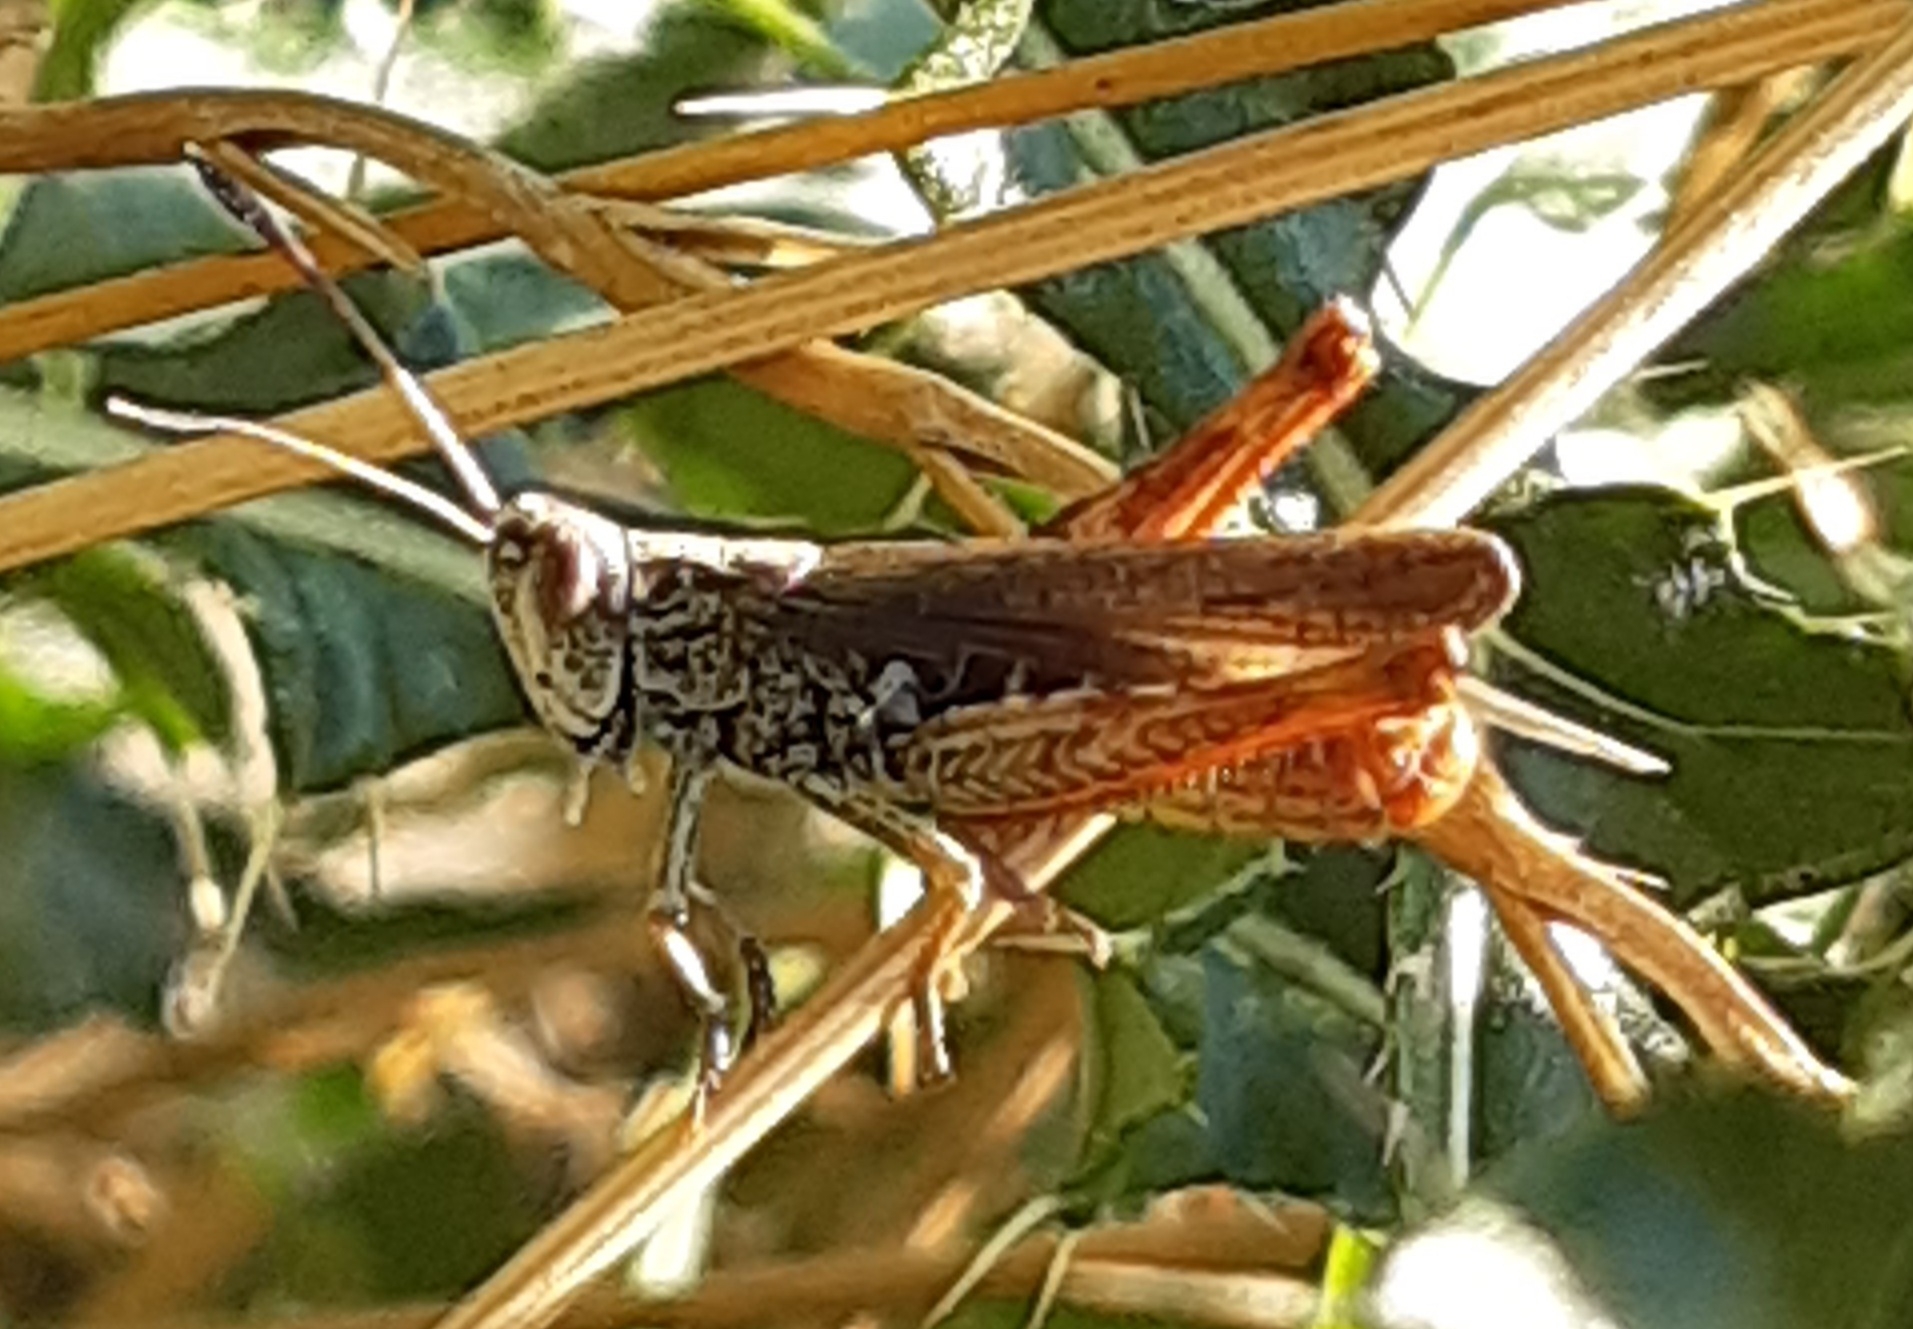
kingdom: Animalia
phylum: Arthropoda
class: Insecta
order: Orthoptera
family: Acrididae
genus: Gomphocerippus
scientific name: Gomphocerippus rufus
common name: Rufous grasshopper
